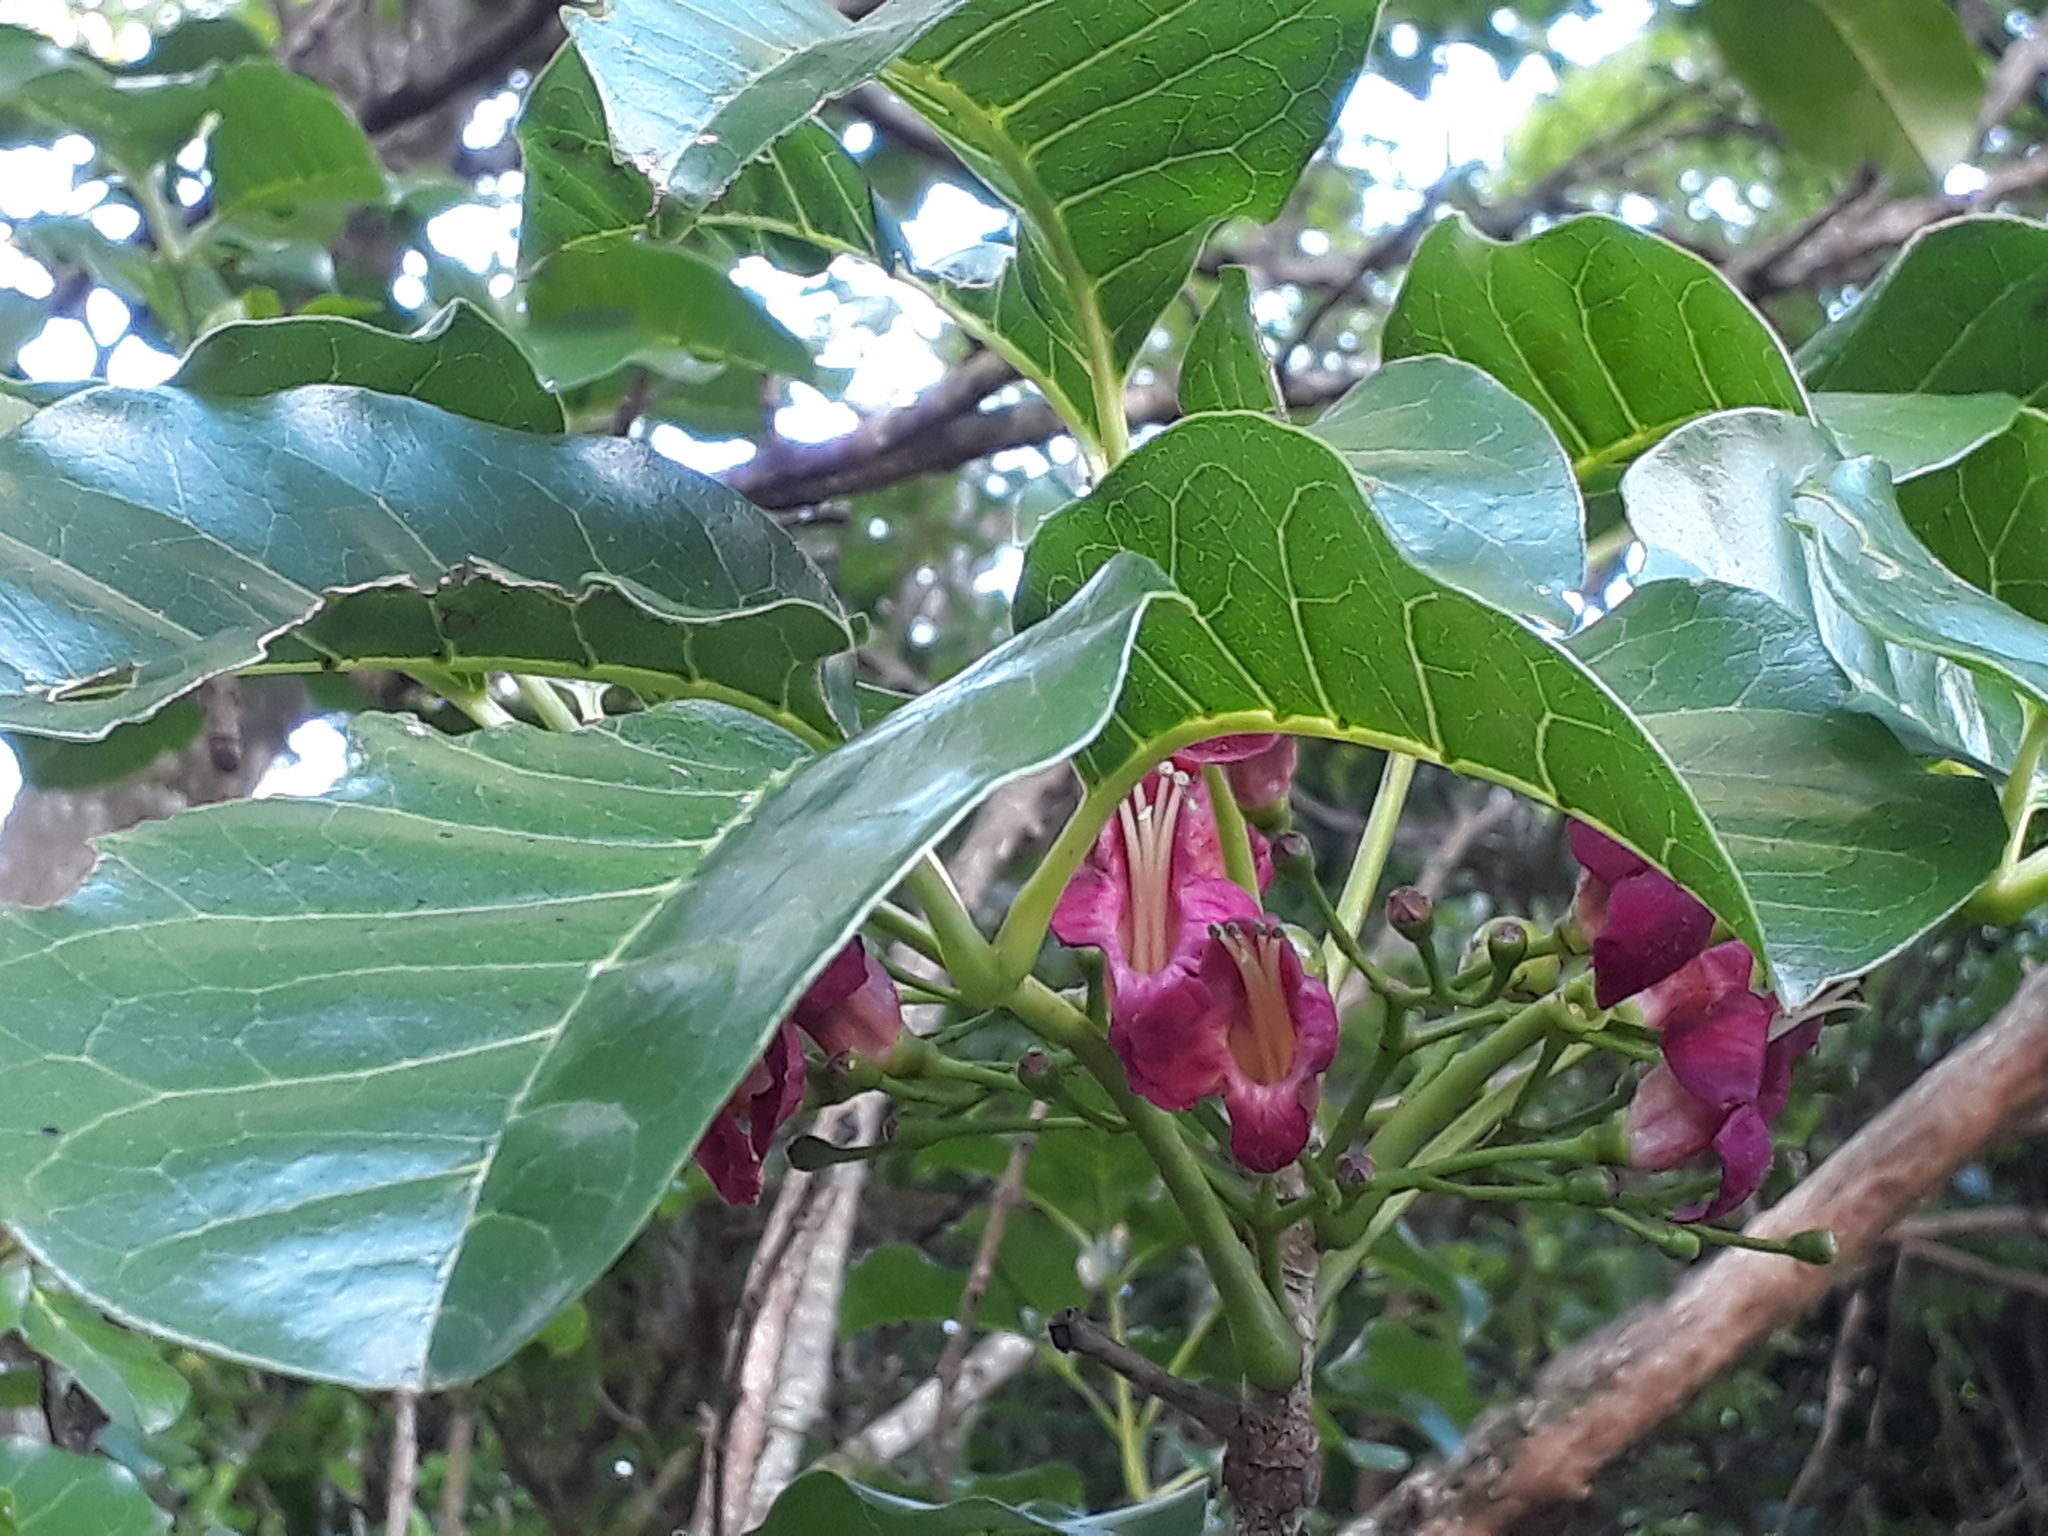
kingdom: Plantae
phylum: Tracheophyta
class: Magnoliopsida
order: Lamiales
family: Lamiaceae
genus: Vitex
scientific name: Vitex lucens
